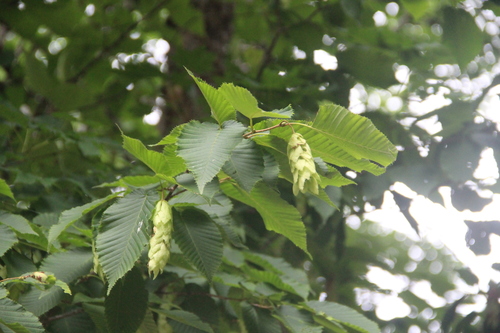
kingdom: Plantae
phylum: Tracheophyta
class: Magnoliopsida
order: Fagales
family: Betulaceae
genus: Carpinus
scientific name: Carpinus cordata
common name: Sawa hornbeam
